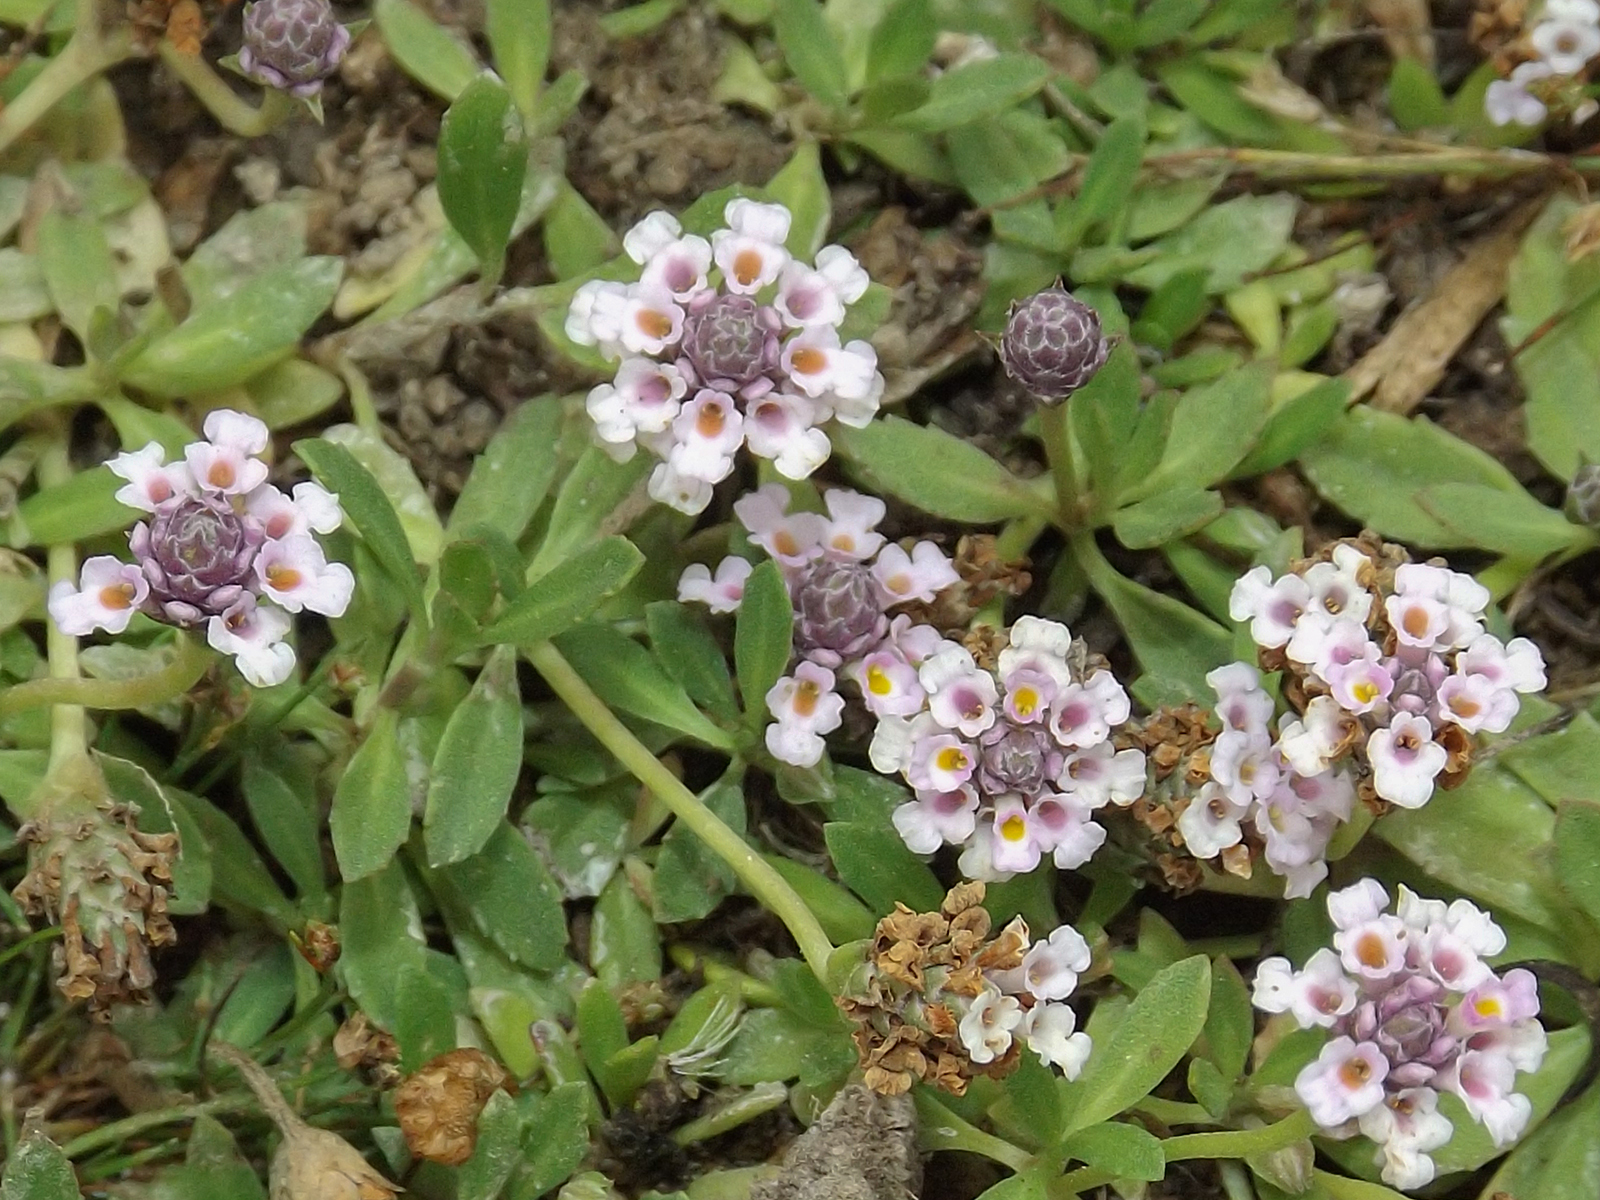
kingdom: Plantae
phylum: Tracheophyta
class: Magnoliopsida
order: Lamiales
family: Verbenaceae
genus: Phyla
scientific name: Phyla nodiflora
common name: Frogfruit
